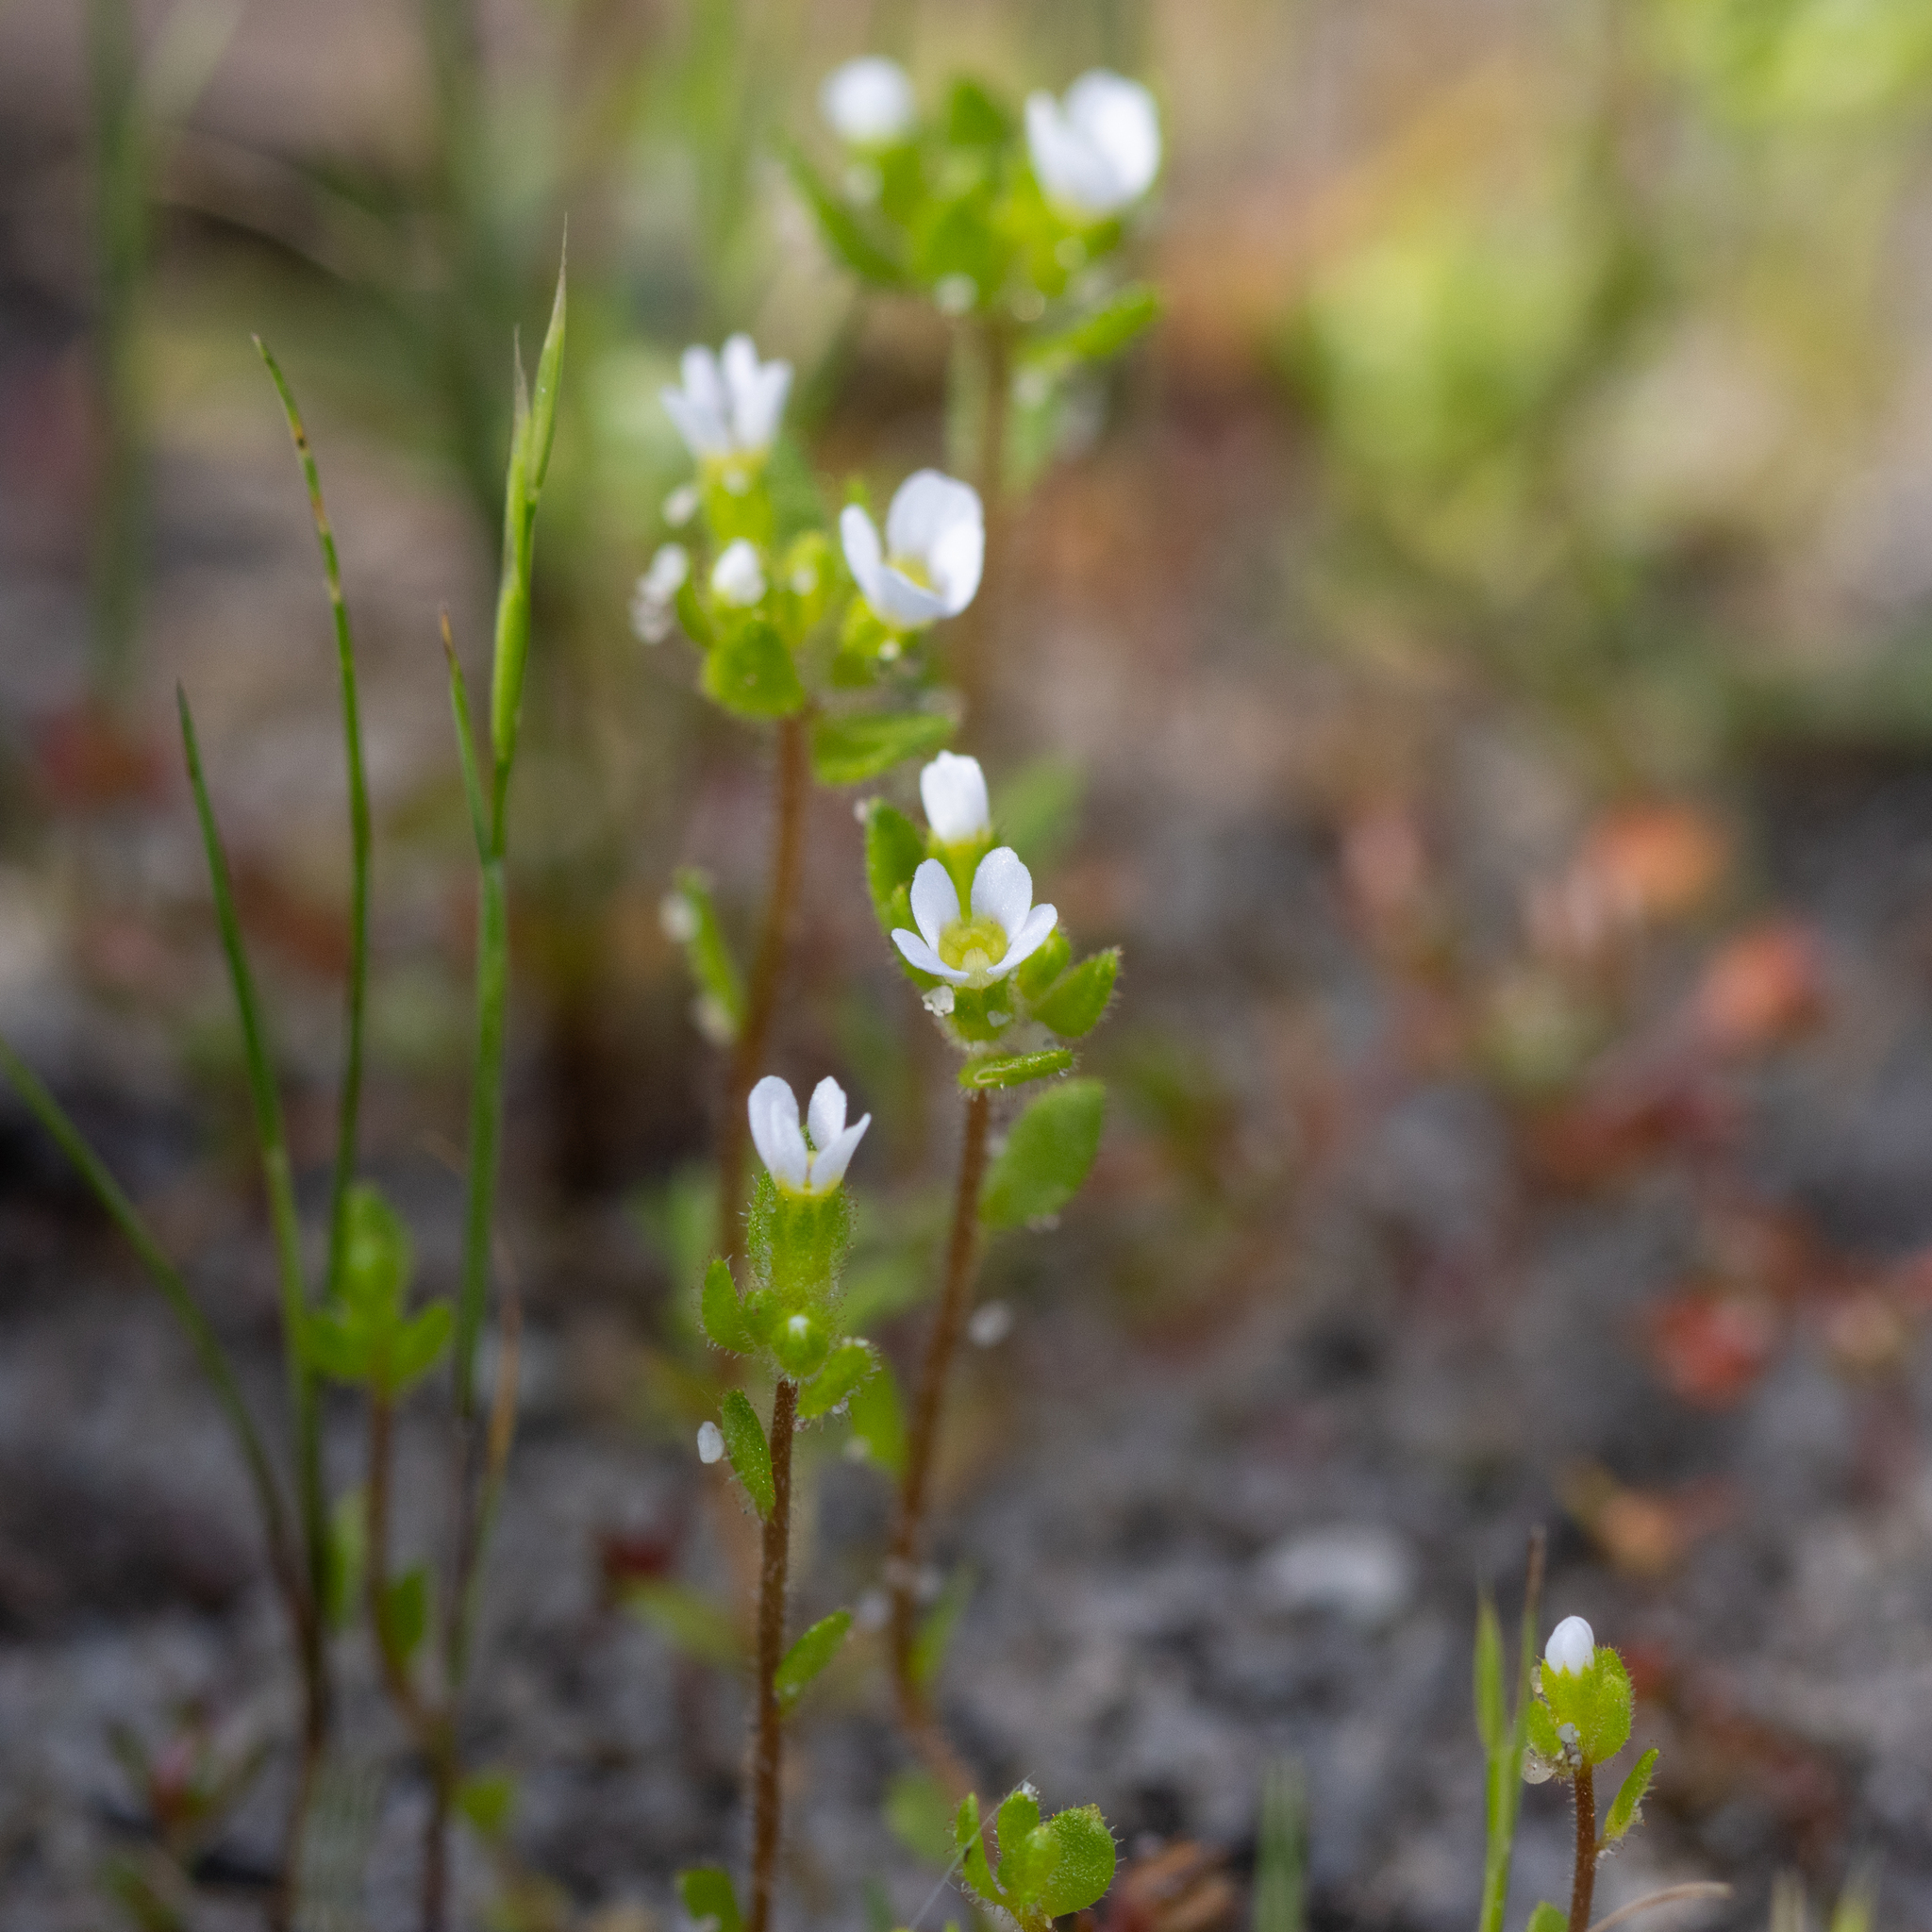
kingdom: Plantae
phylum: Tracheophyta
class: Magnoliopsida
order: Asterales
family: Stylidiaceae
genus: Levenhookia
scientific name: Levenhookia dubia
